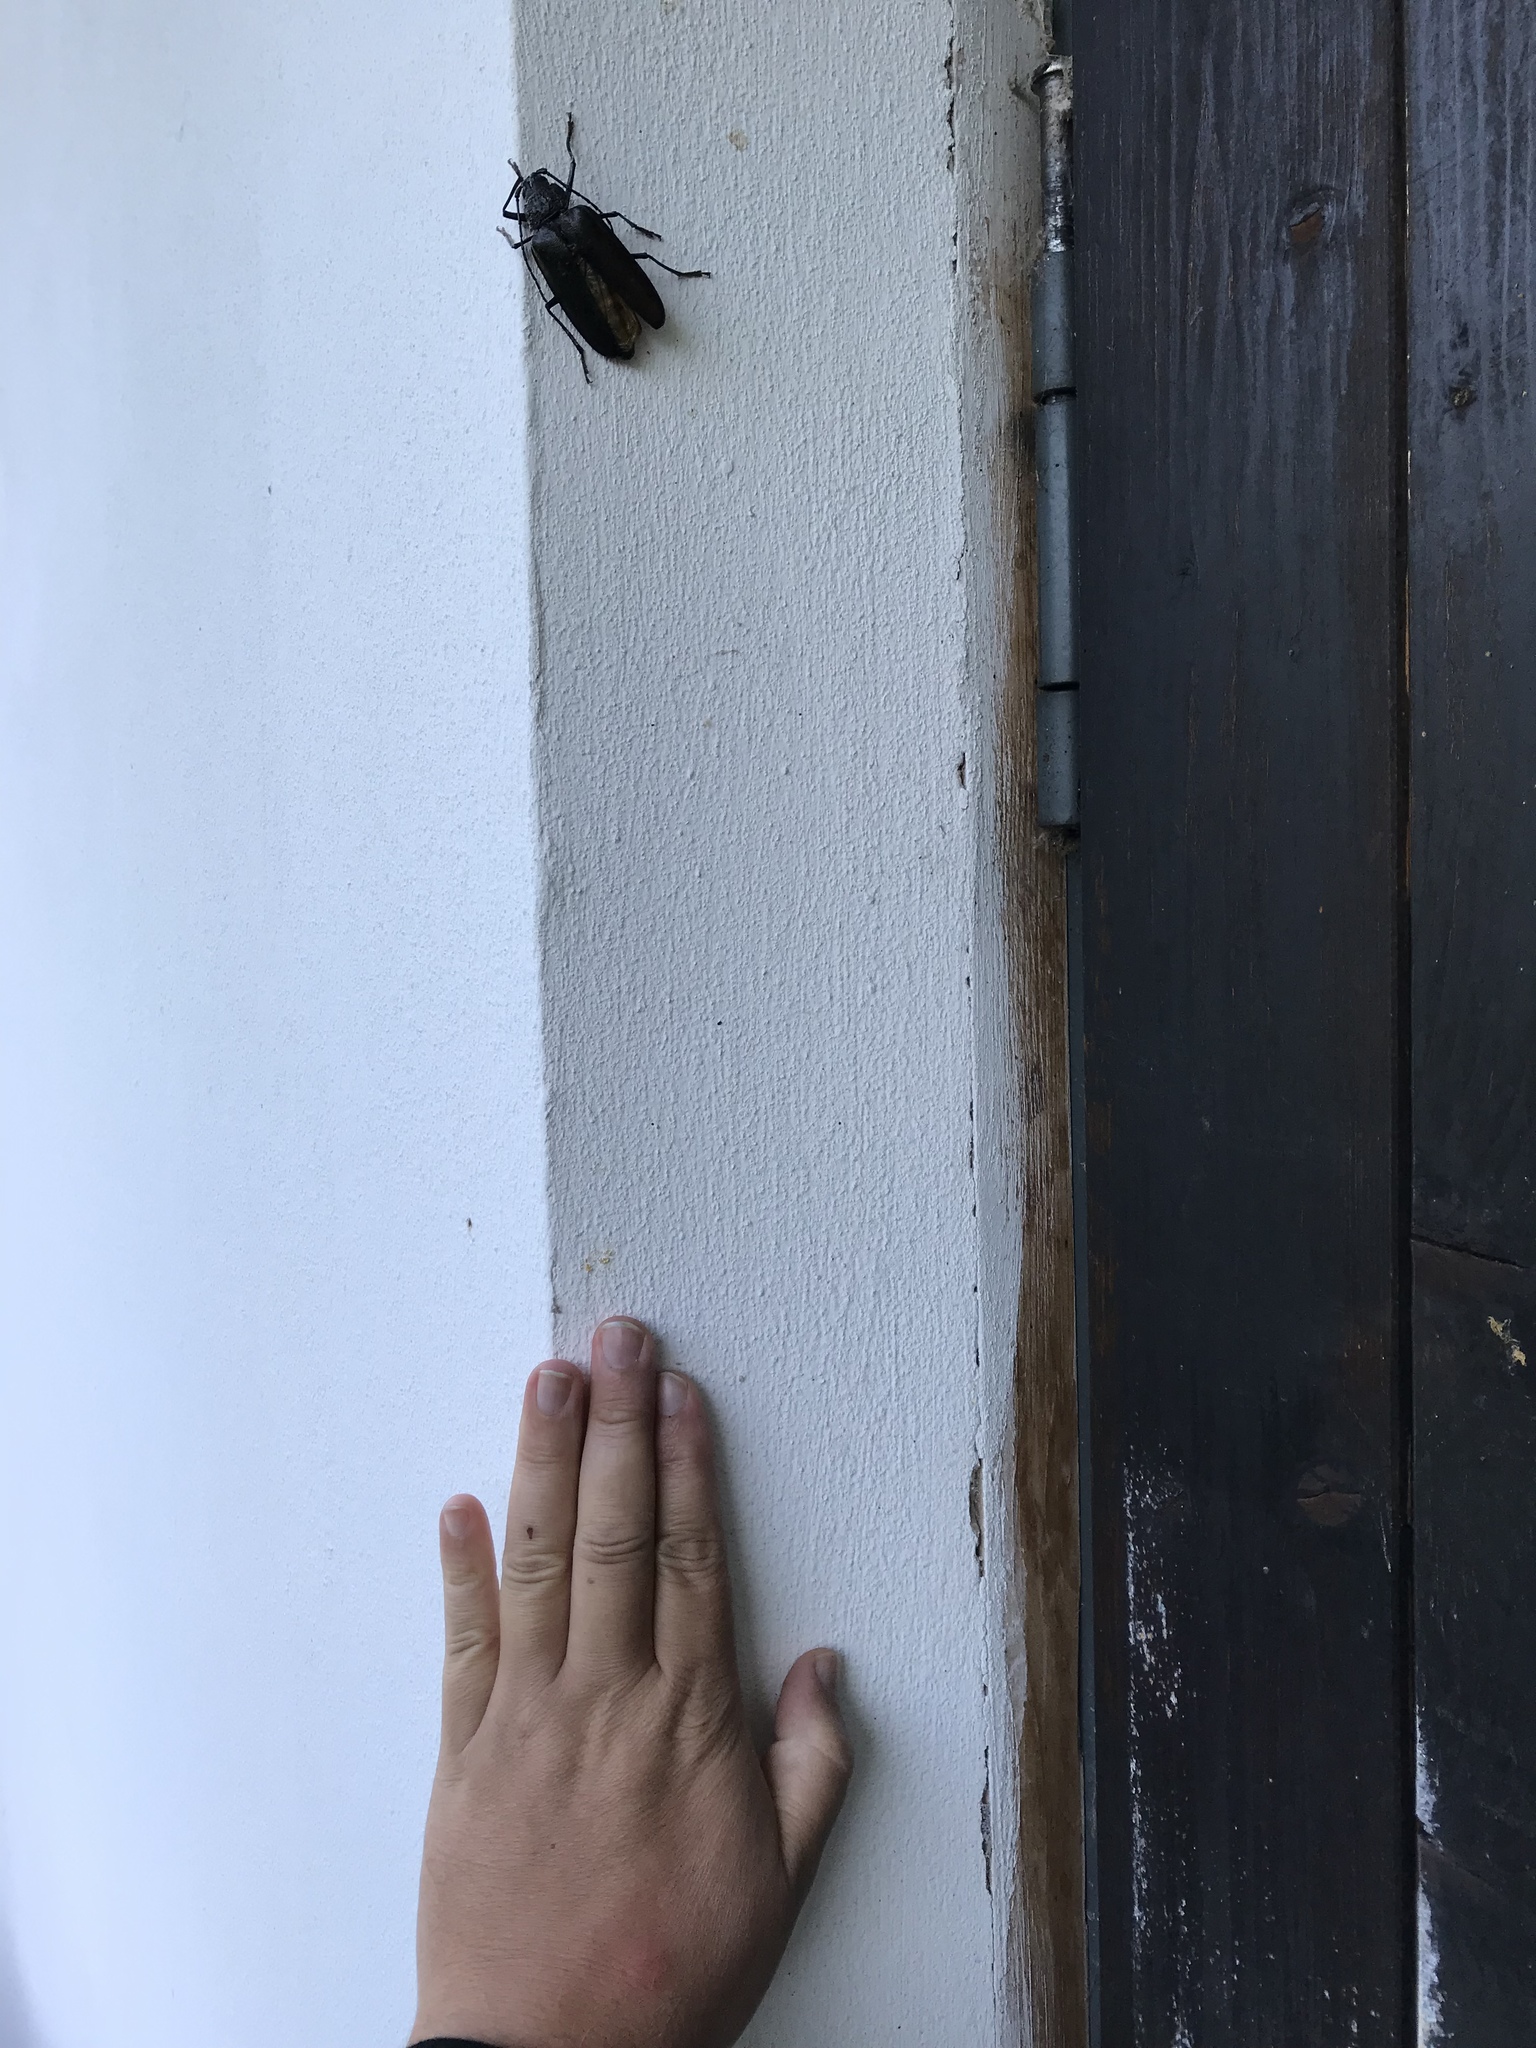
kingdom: Animalia
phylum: Arthropoda
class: Insecta
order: Coleoptera
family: Cerambycidae
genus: Ergates
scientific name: Ergates faber
